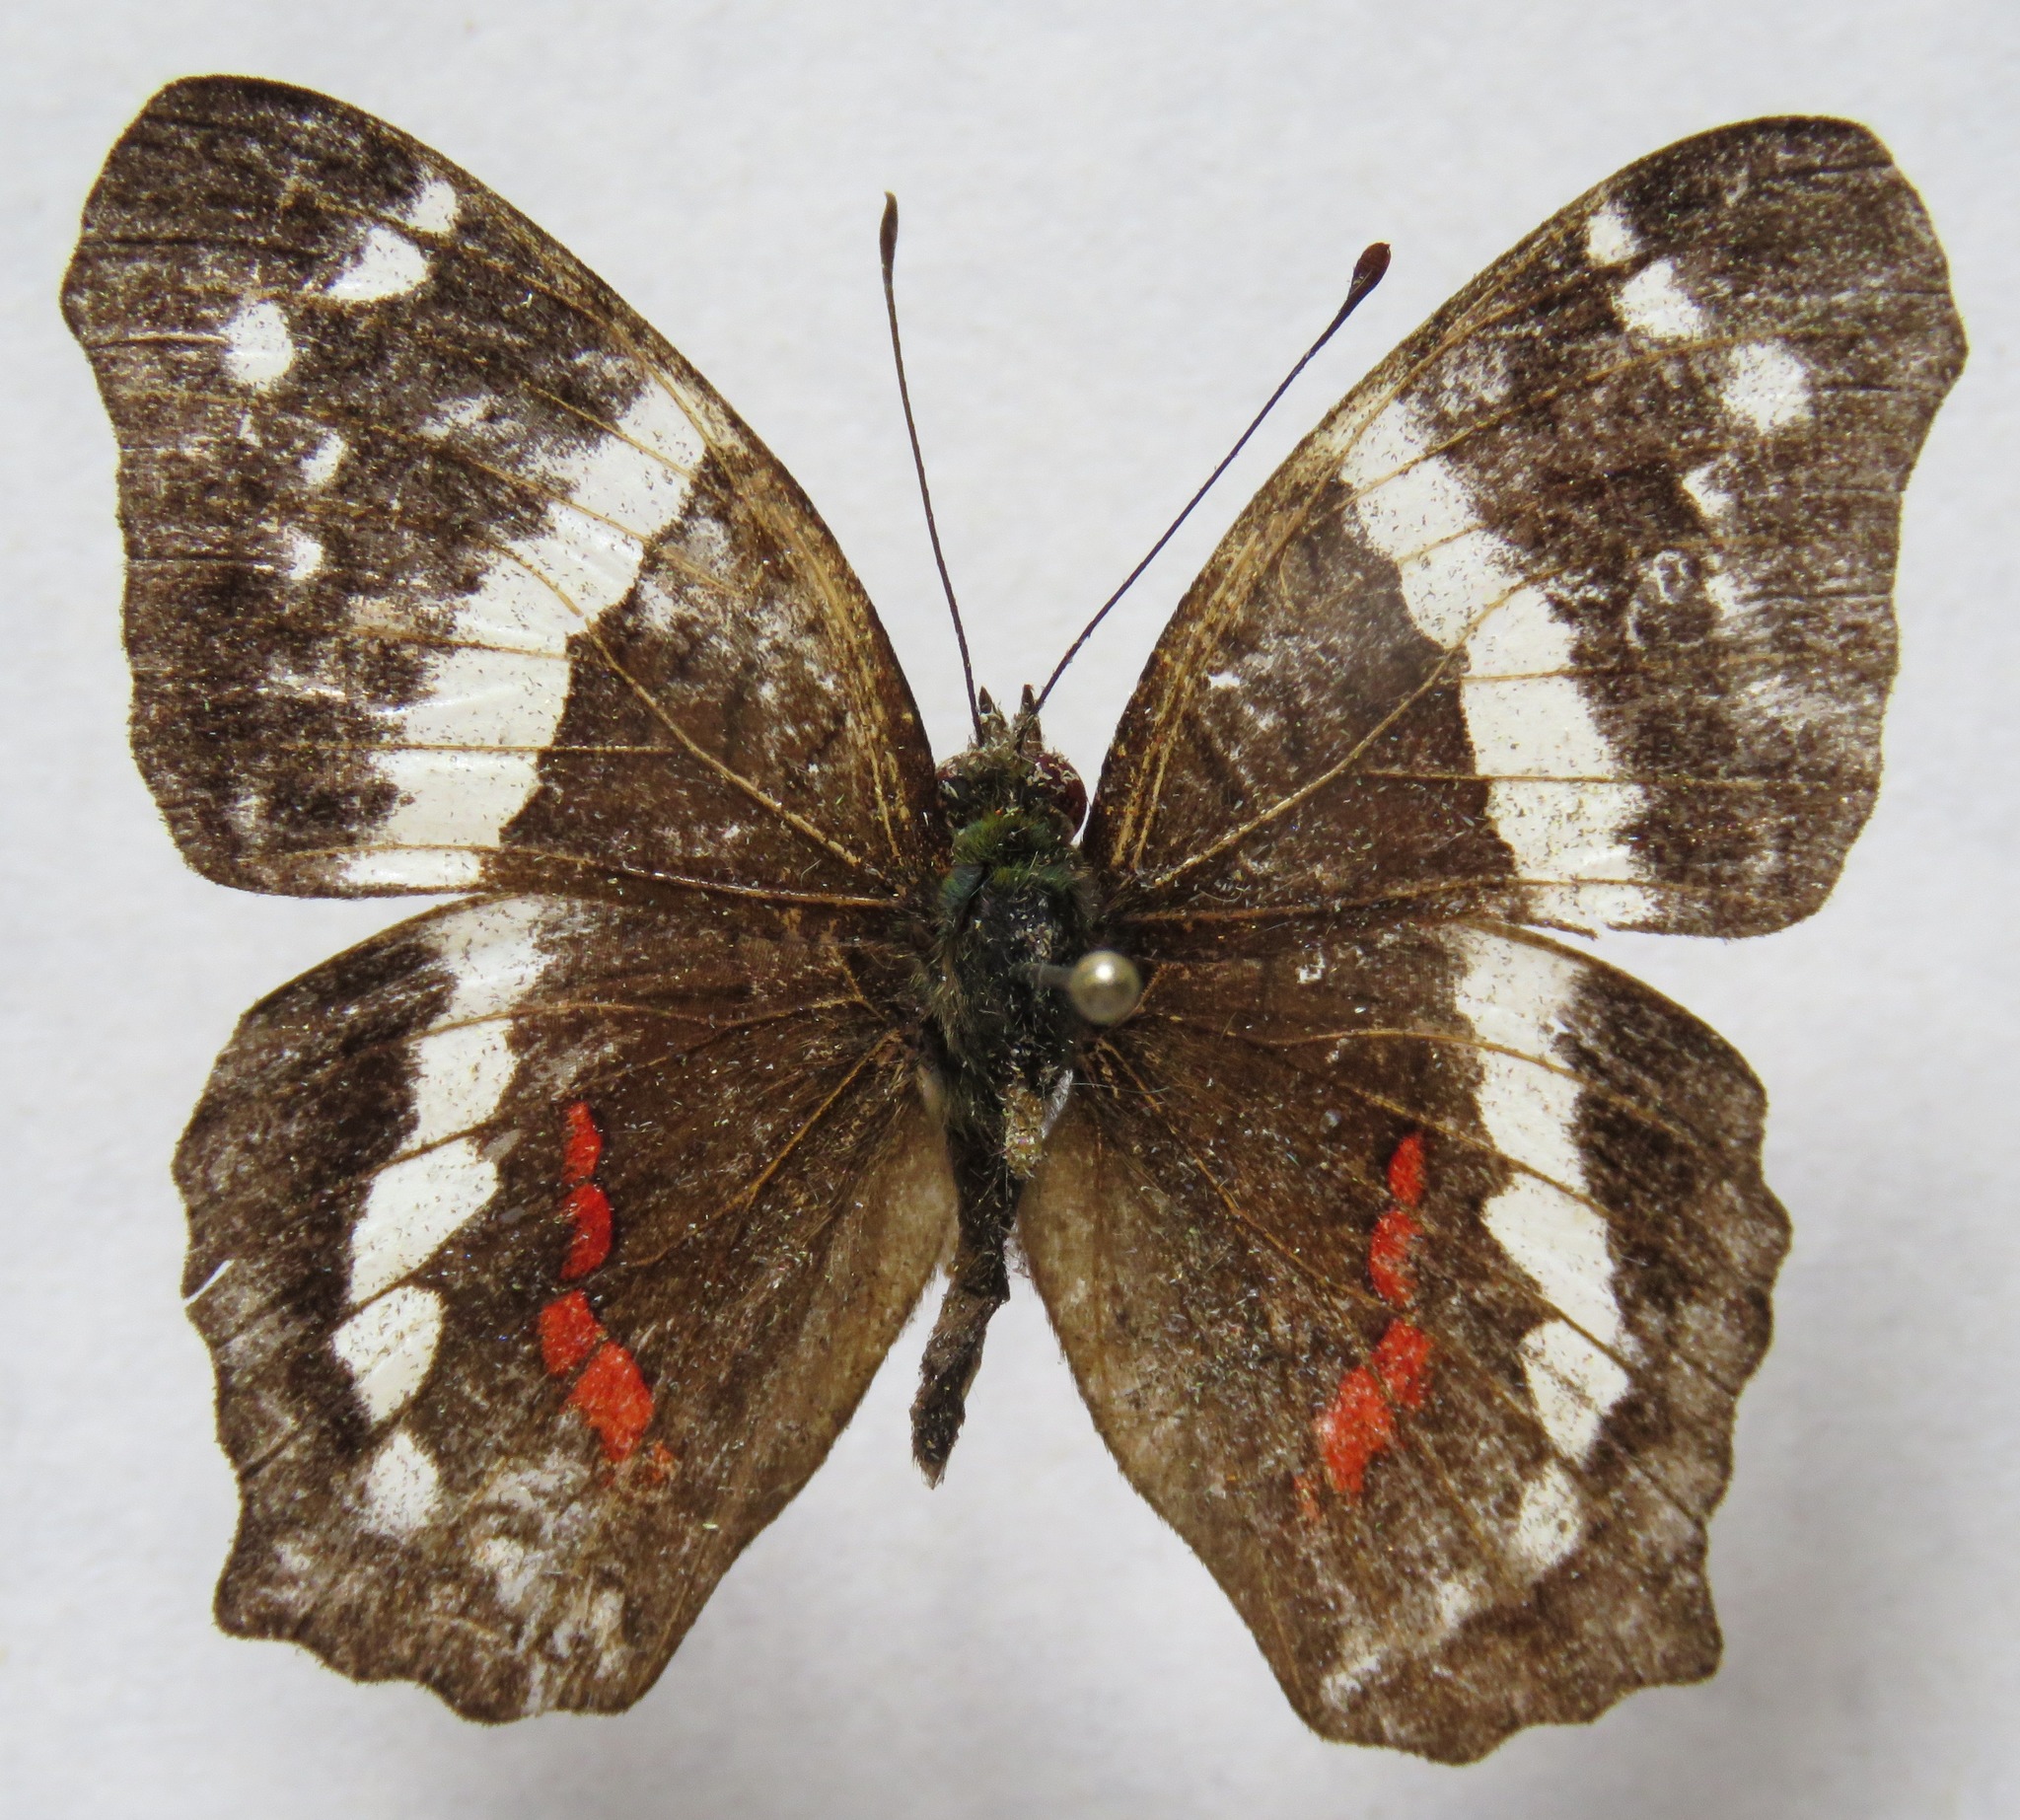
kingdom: Animalia
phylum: Arthropoda
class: Insecta
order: Lepidoptera
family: Nymphalidae
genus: Anartia
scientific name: Anartia fatima
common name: Banded peacock
